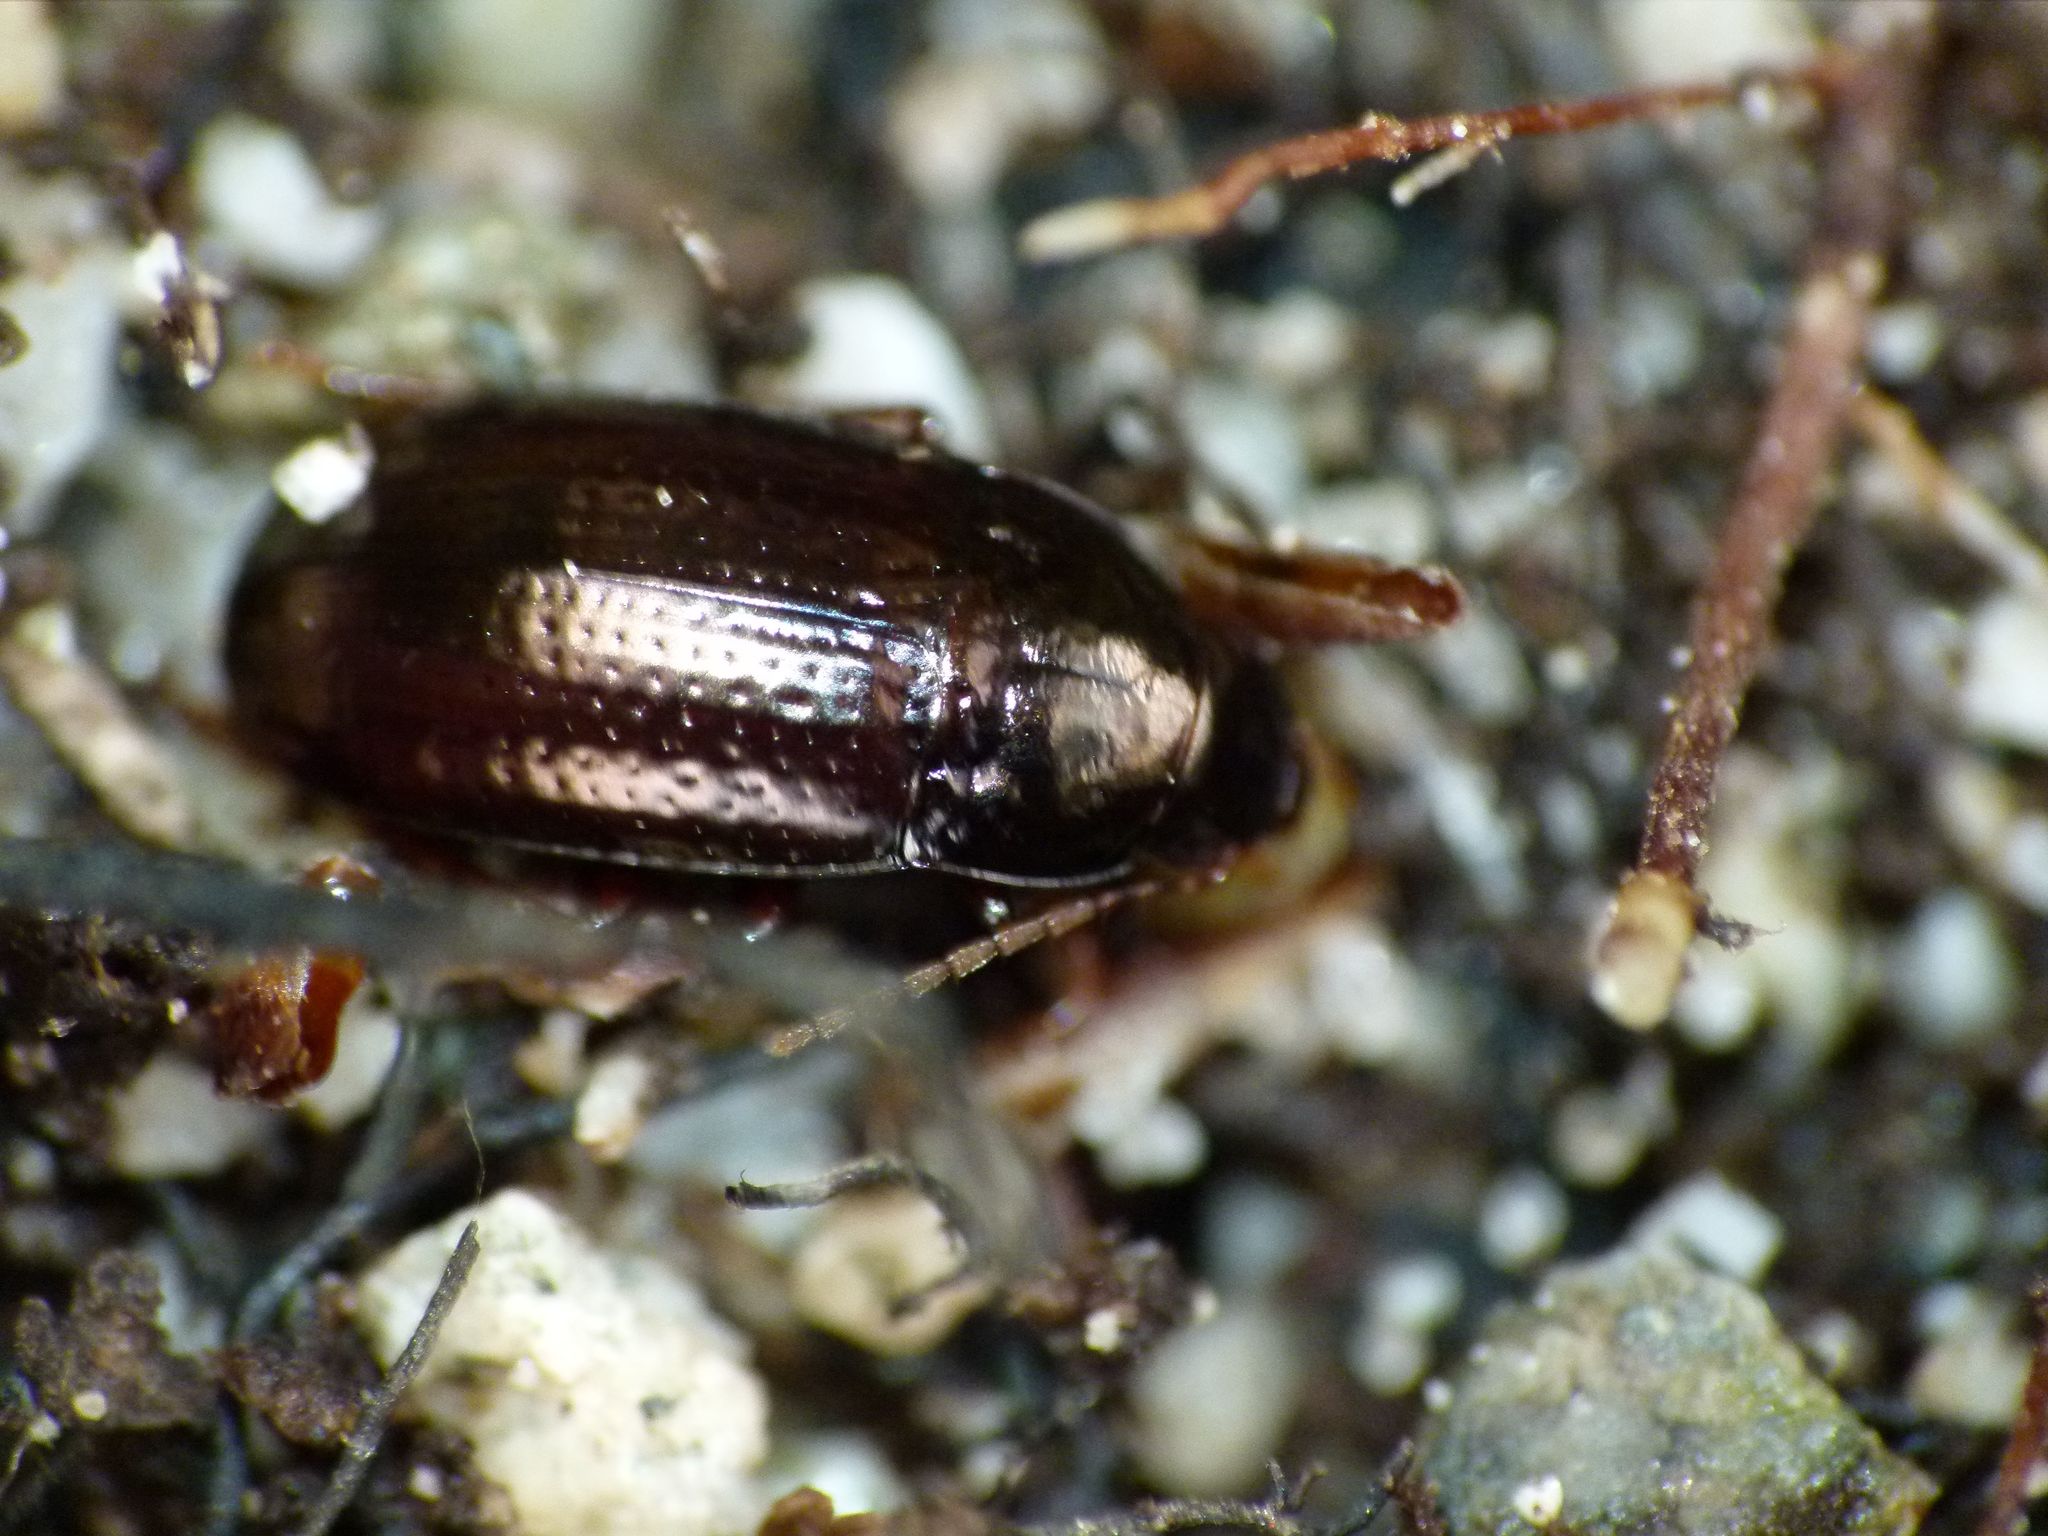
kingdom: Animalia
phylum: Arthropoda
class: Insecta
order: Coleoptera
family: Carabidae
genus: Amarotypus
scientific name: Amarotypus edwardsii
